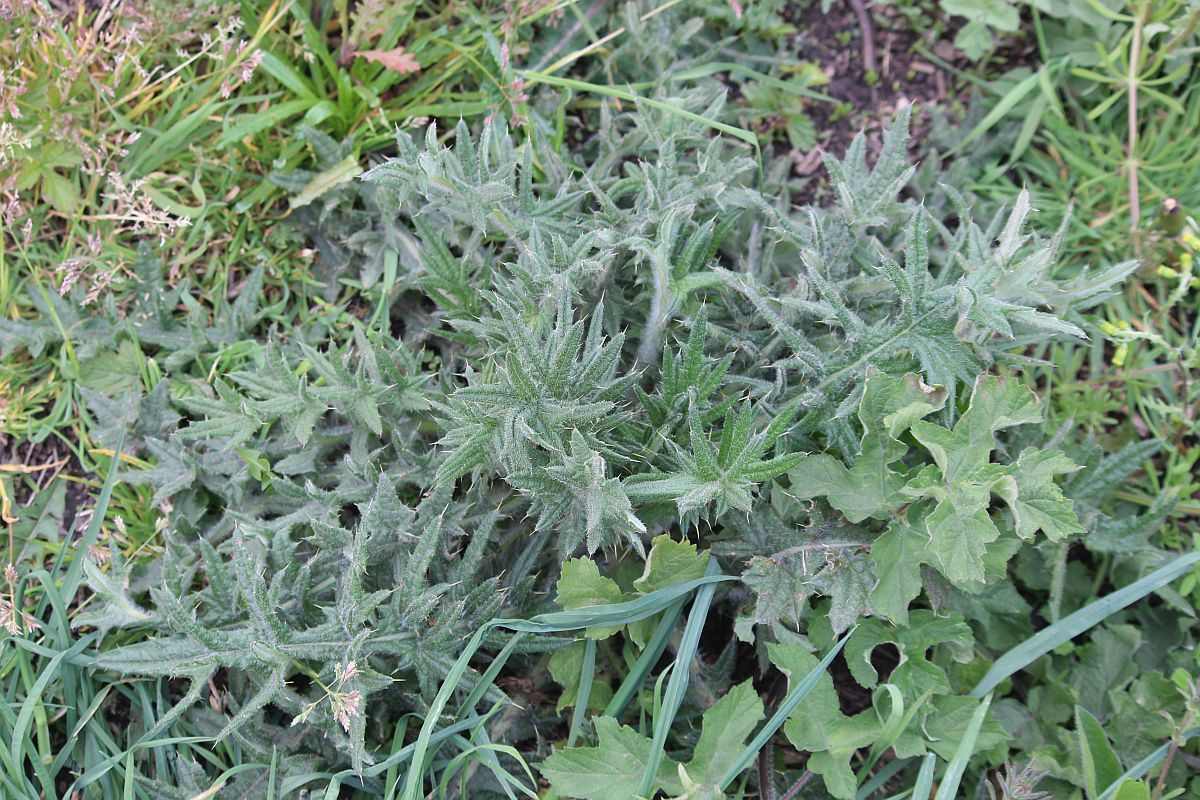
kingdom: Plantae
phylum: Tracheophyta
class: Magnoliopsida
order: Asterales
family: Asteraceae
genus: Cirsium
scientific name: Cirsium vulgare
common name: Bull thistle
